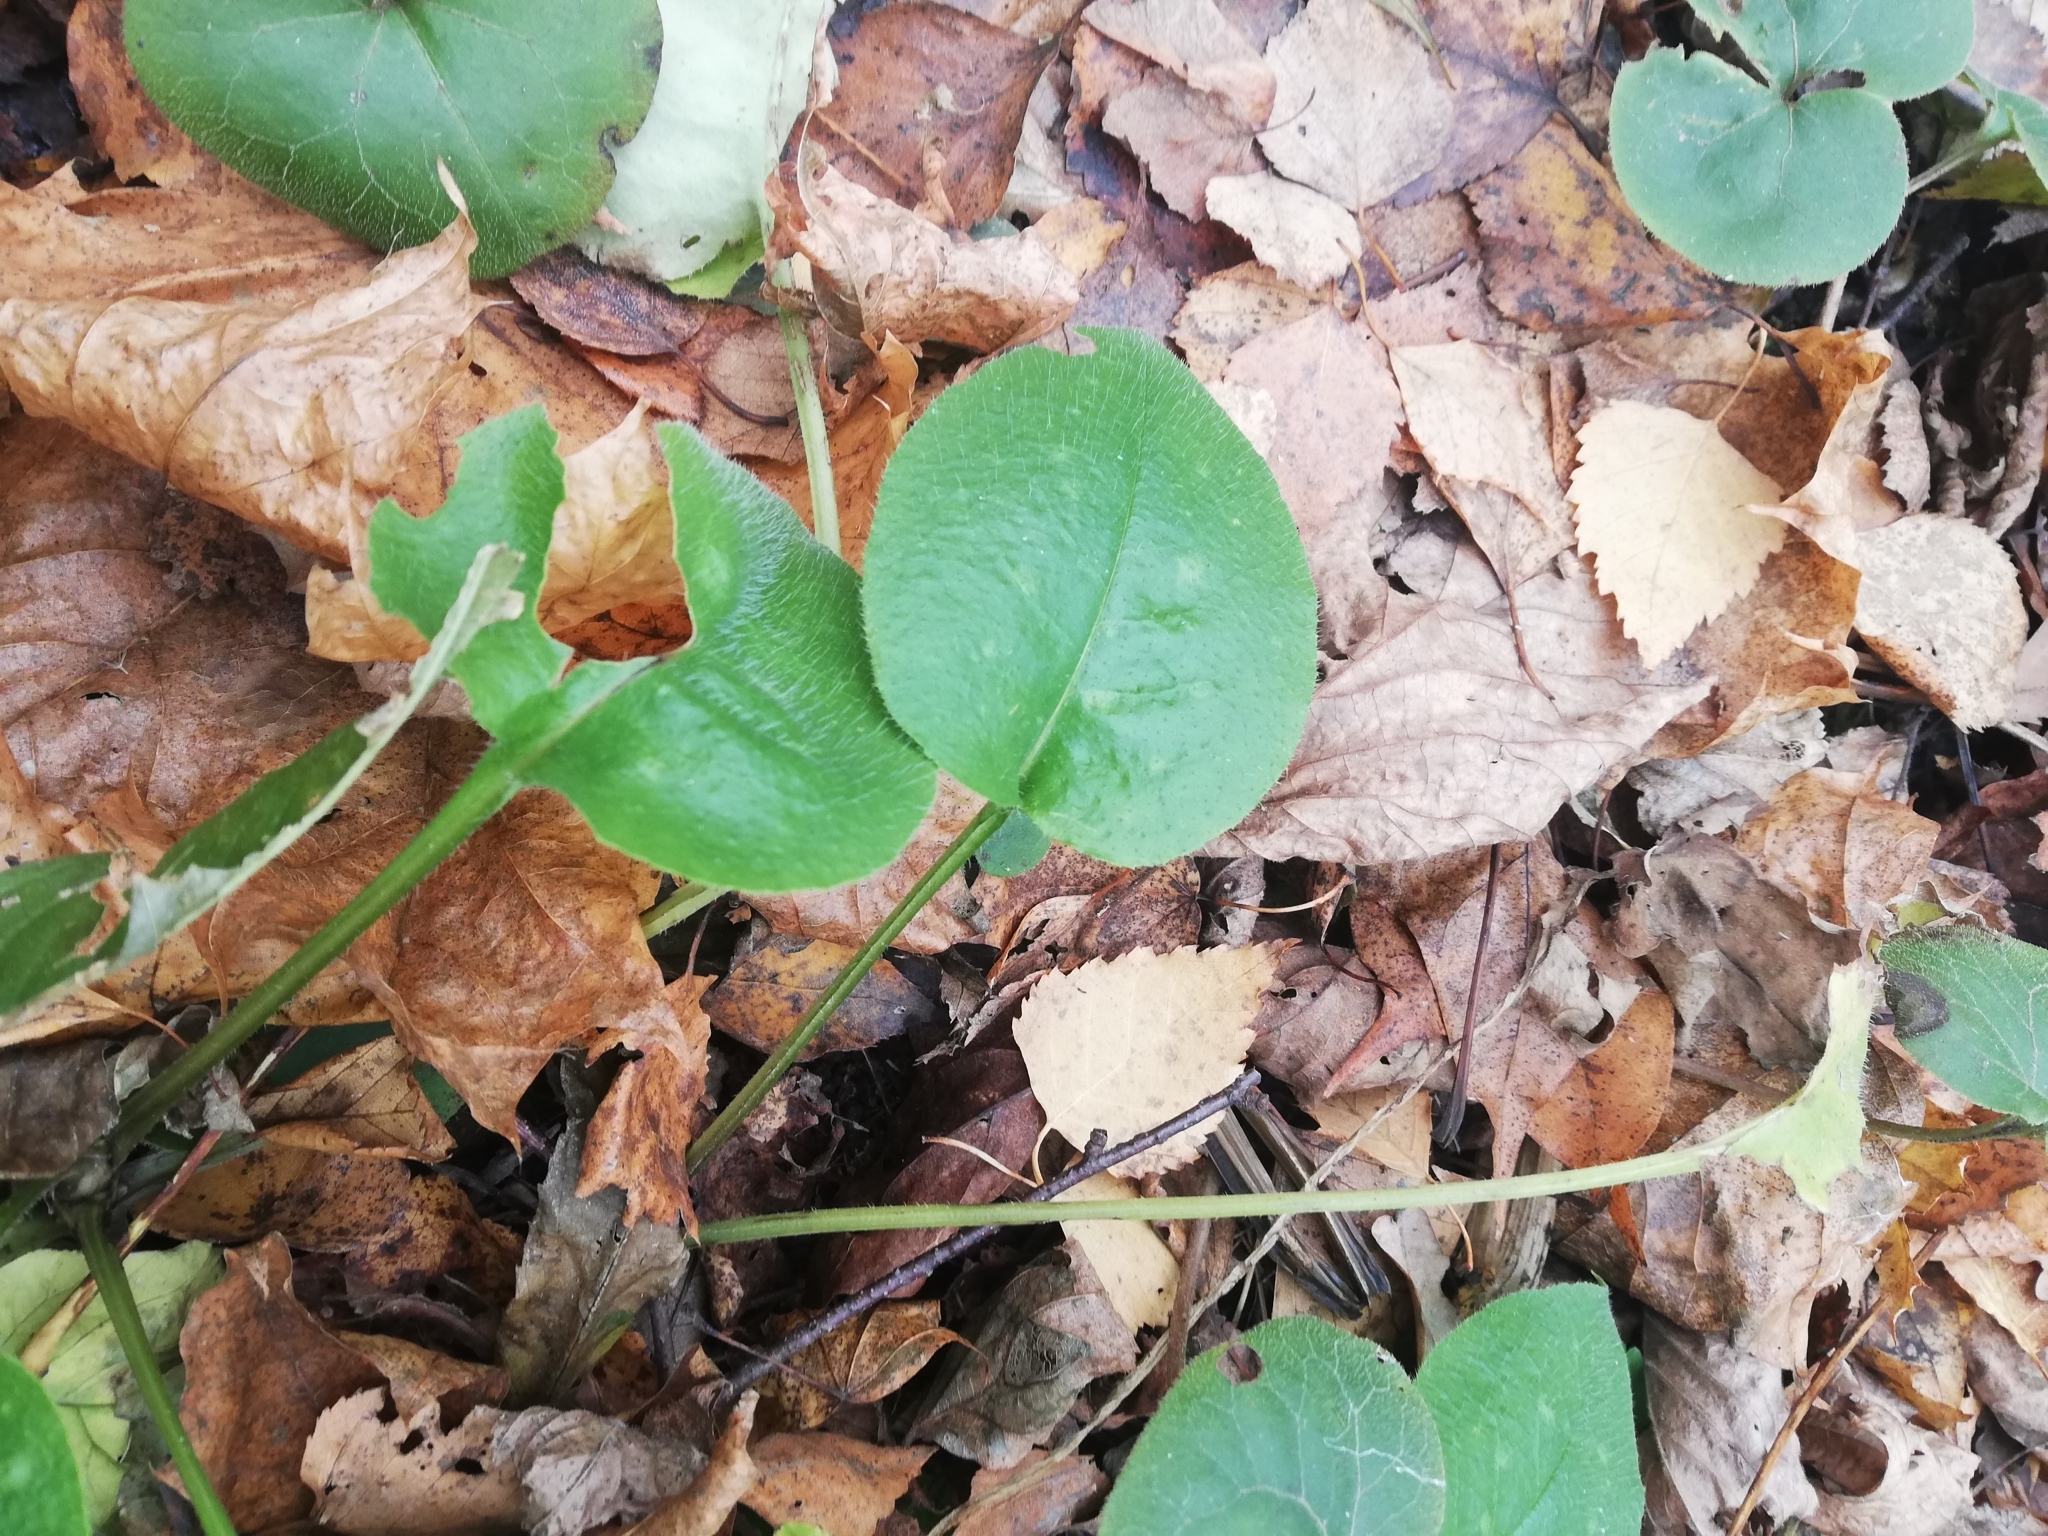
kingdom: Plantae
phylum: Tracheophyta
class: Magnoliopsida
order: Boraginales
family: Boraginaceae
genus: Pulmonaria
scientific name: Pulmonaria obscura
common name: Suffolk lungwort
